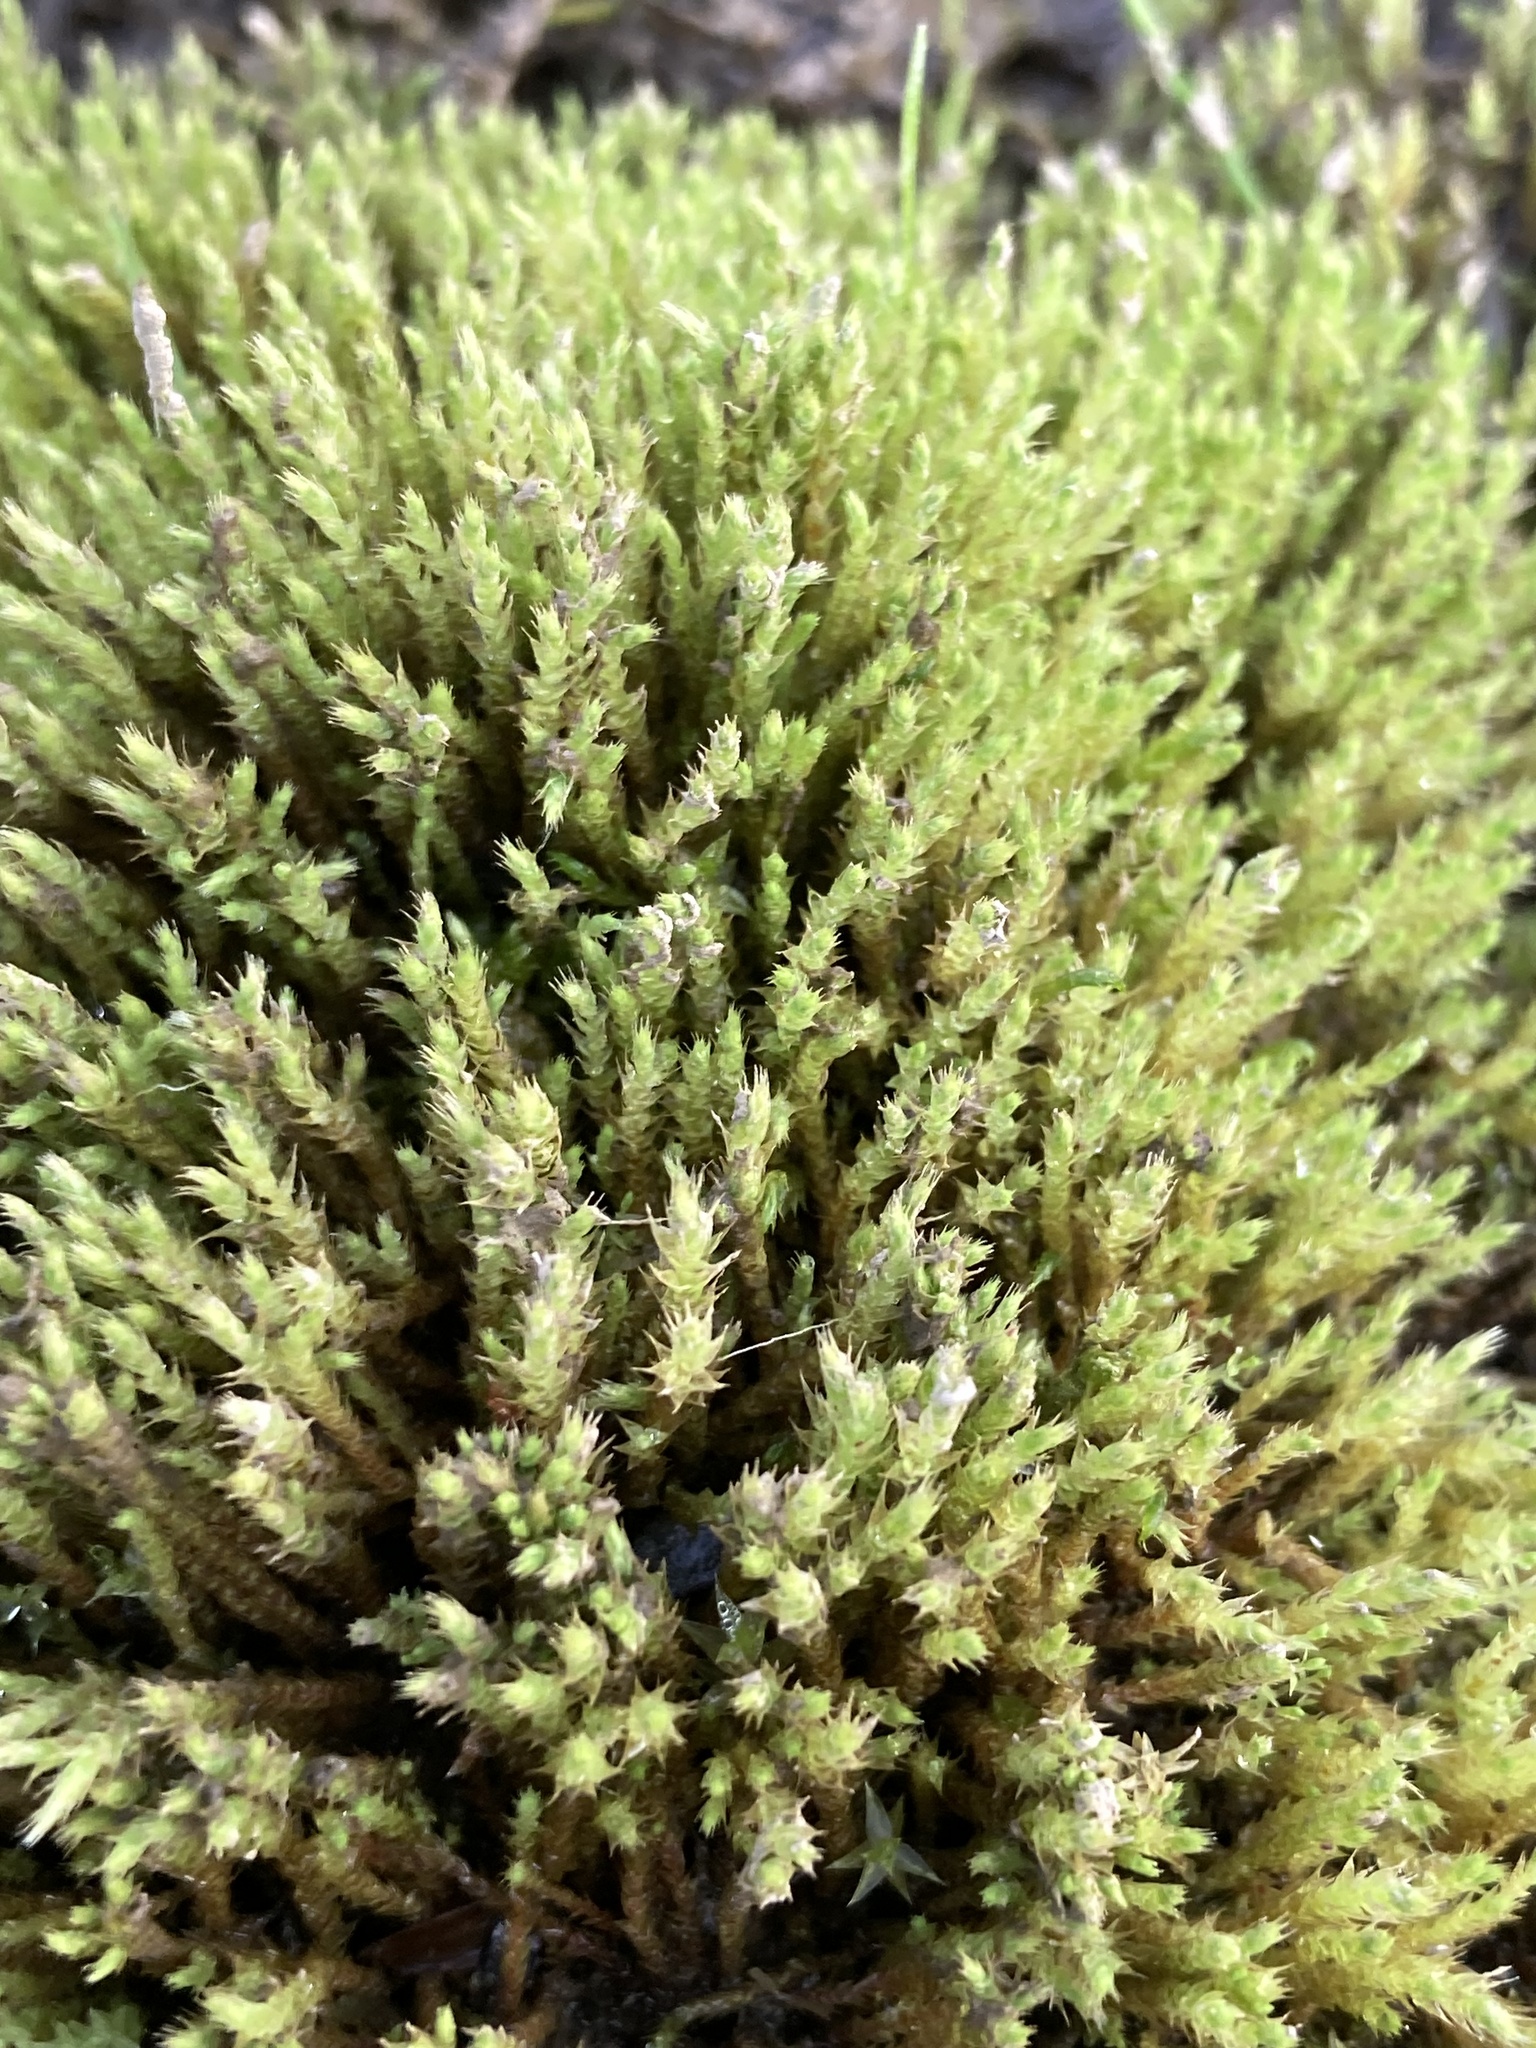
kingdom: Plantae
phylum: Bryophyta
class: Bryopsida
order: Bartramiales
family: Bartramiaceae
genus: Philonotis
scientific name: Philonotis fontana
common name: Fountain apple-moss
